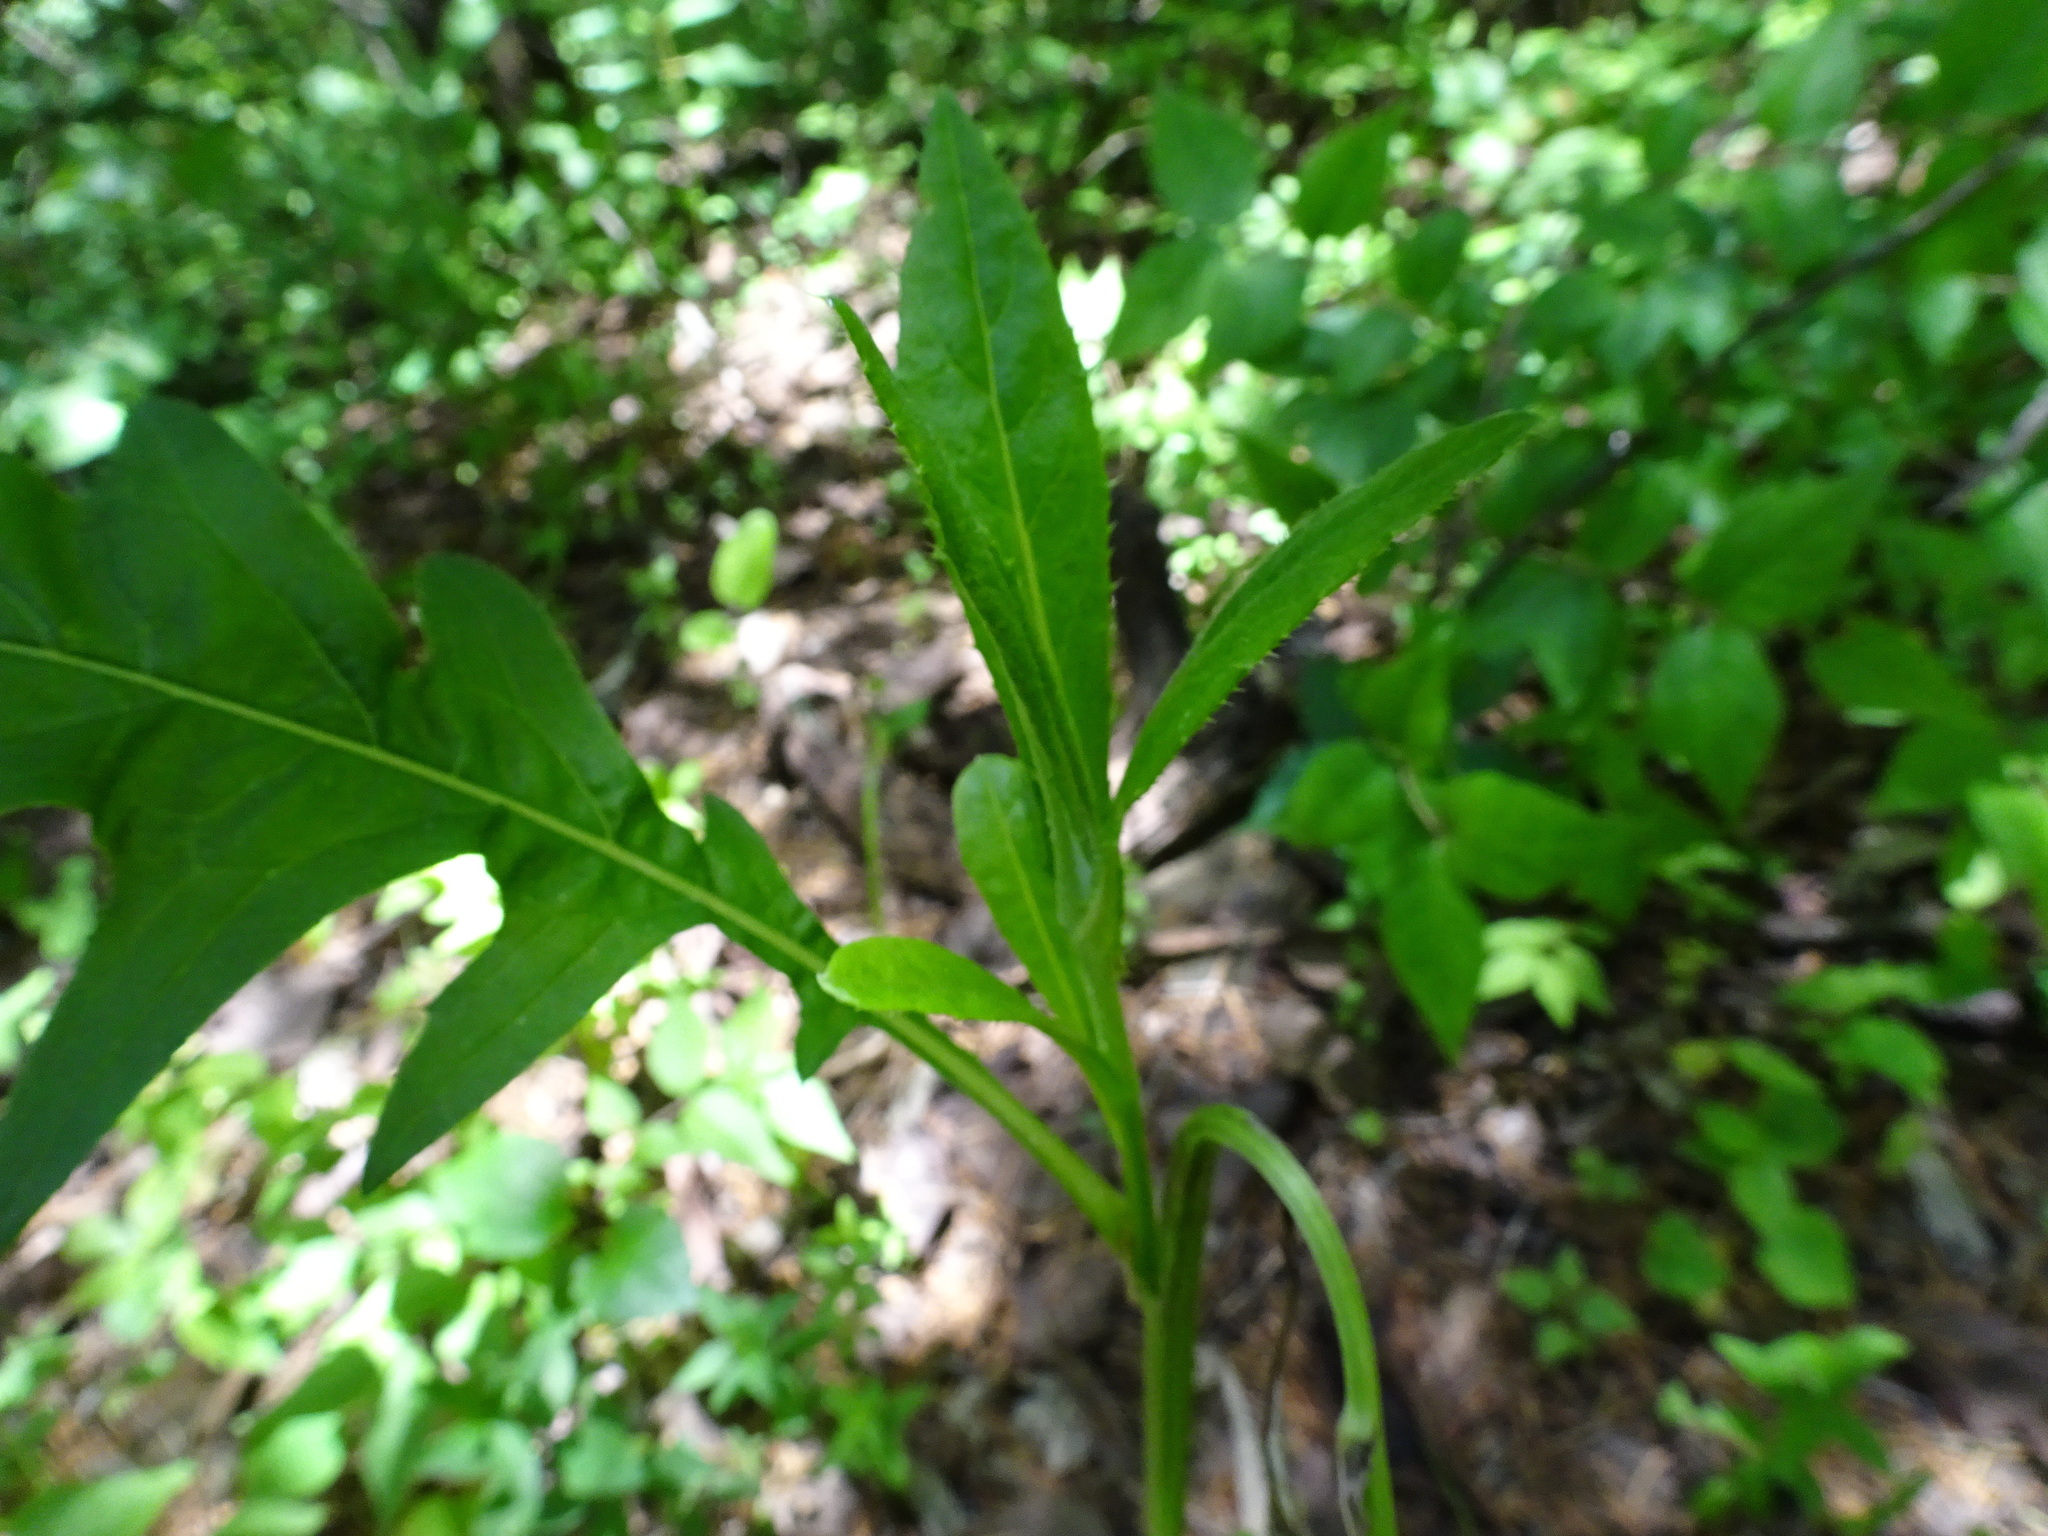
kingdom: Plantae
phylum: Tracheophyta
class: Magnoliopsida
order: Asterales
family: Asteraceae
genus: Cirsium
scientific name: Cirsium altissimum
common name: Roadside thistle
